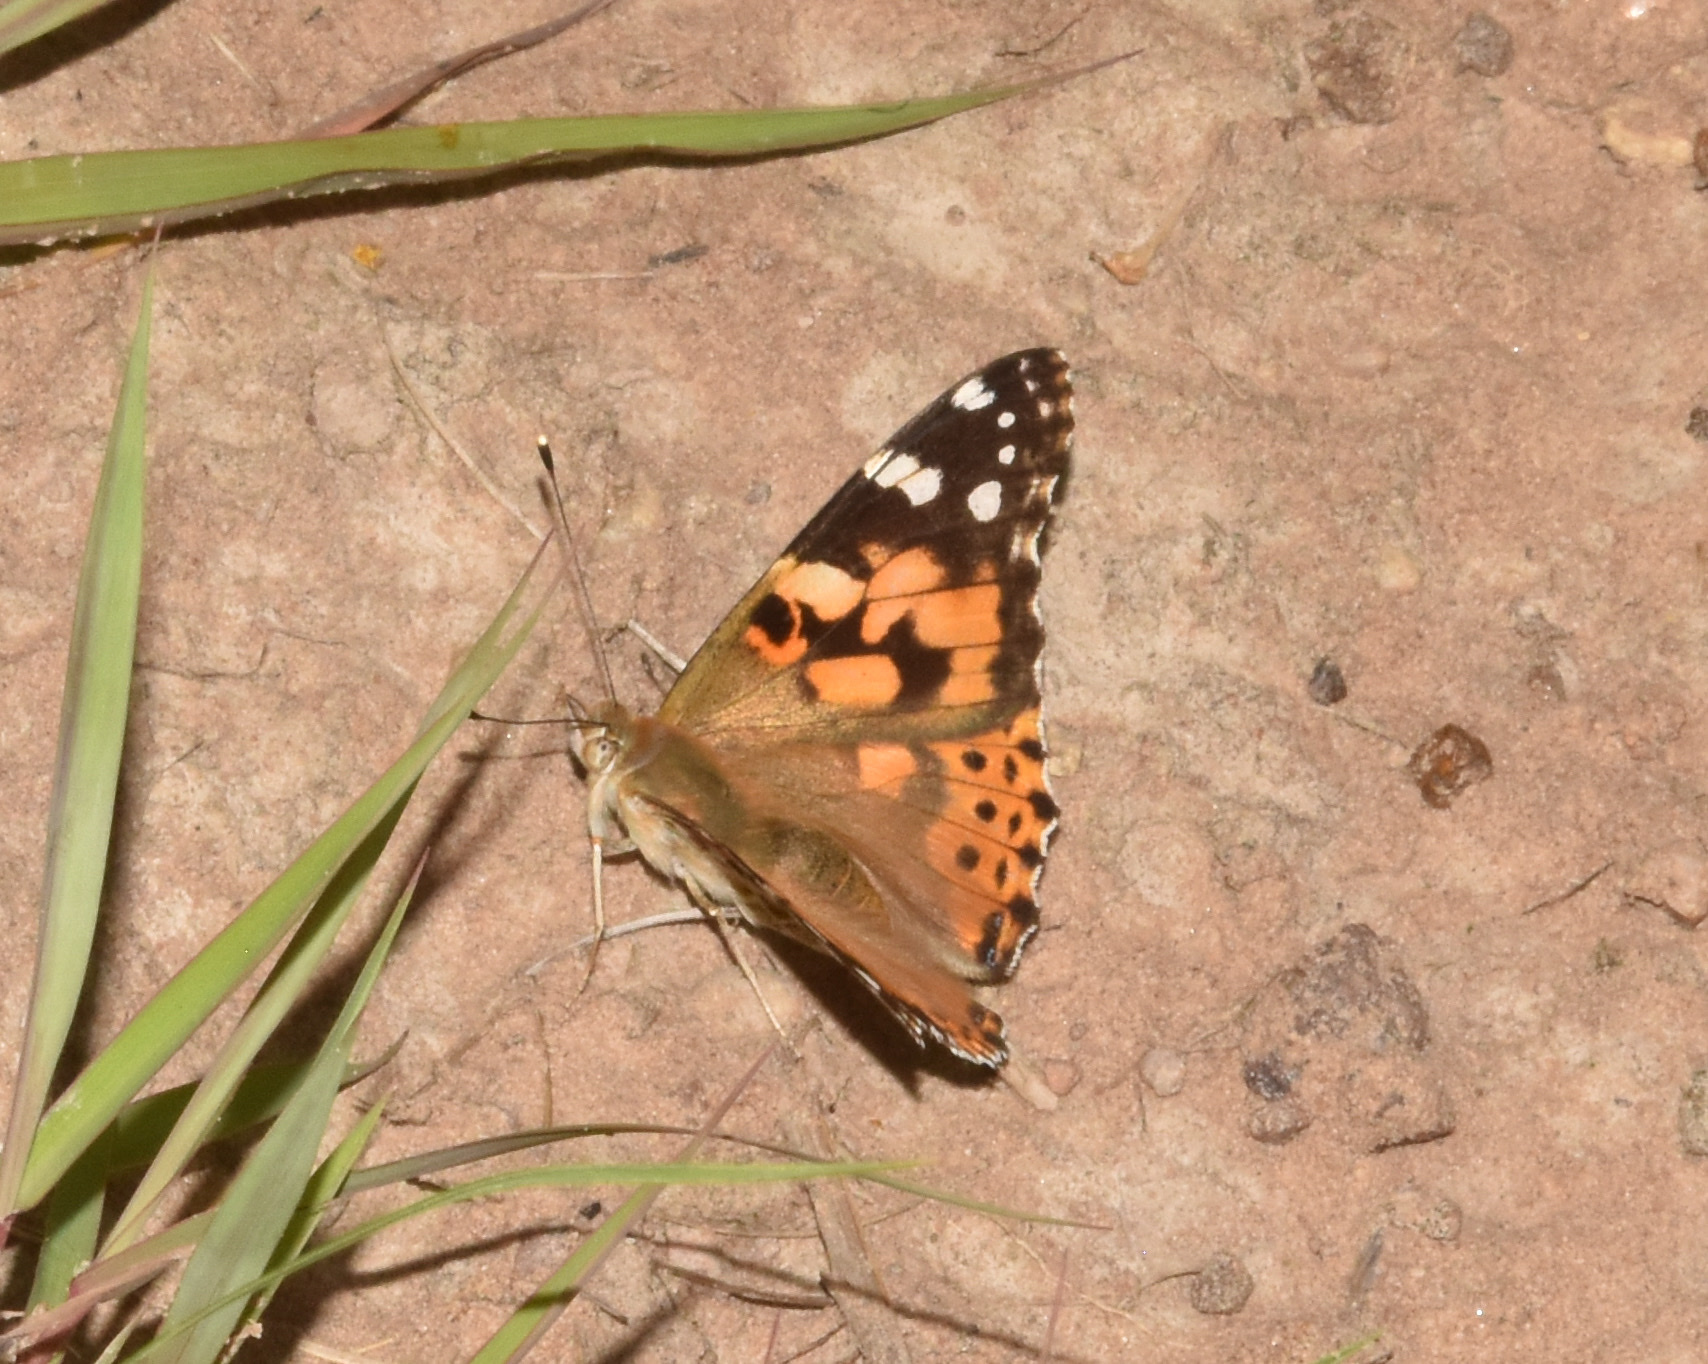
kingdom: Animalia
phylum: Arthropoda
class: Insecta
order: Lepidoptera
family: Nymphalidae
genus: Vanessa
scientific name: Vanessa cardui
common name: Painted lady
